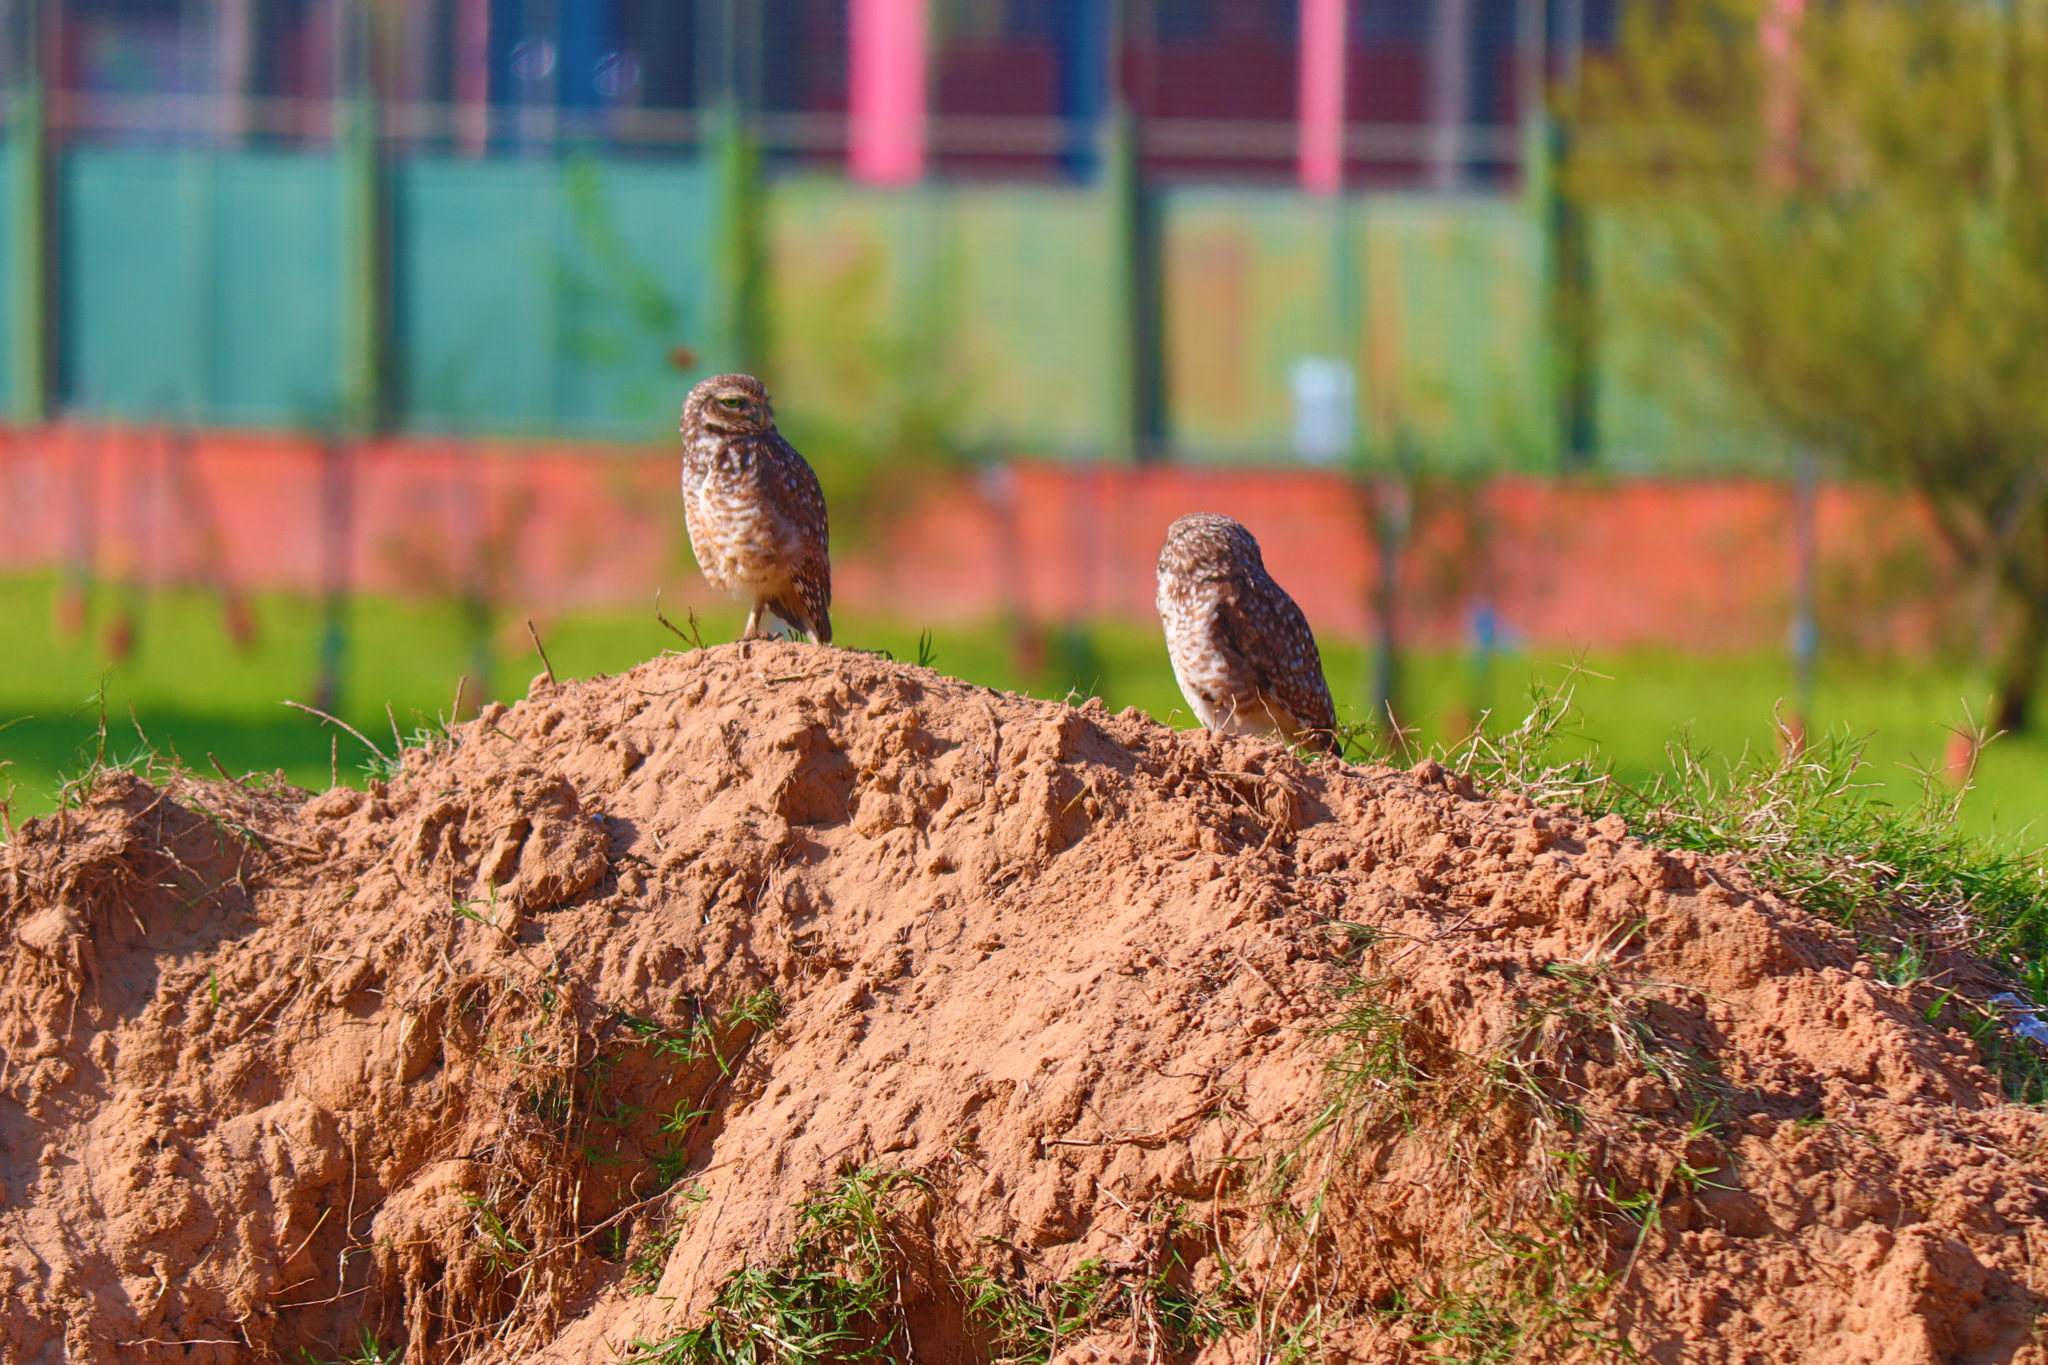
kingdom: Animalia
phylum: Chordata
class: Aves
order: Strigiformes
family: Strigidae
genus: Athene
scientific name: Athene cunicularia
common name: Burrowing owl
